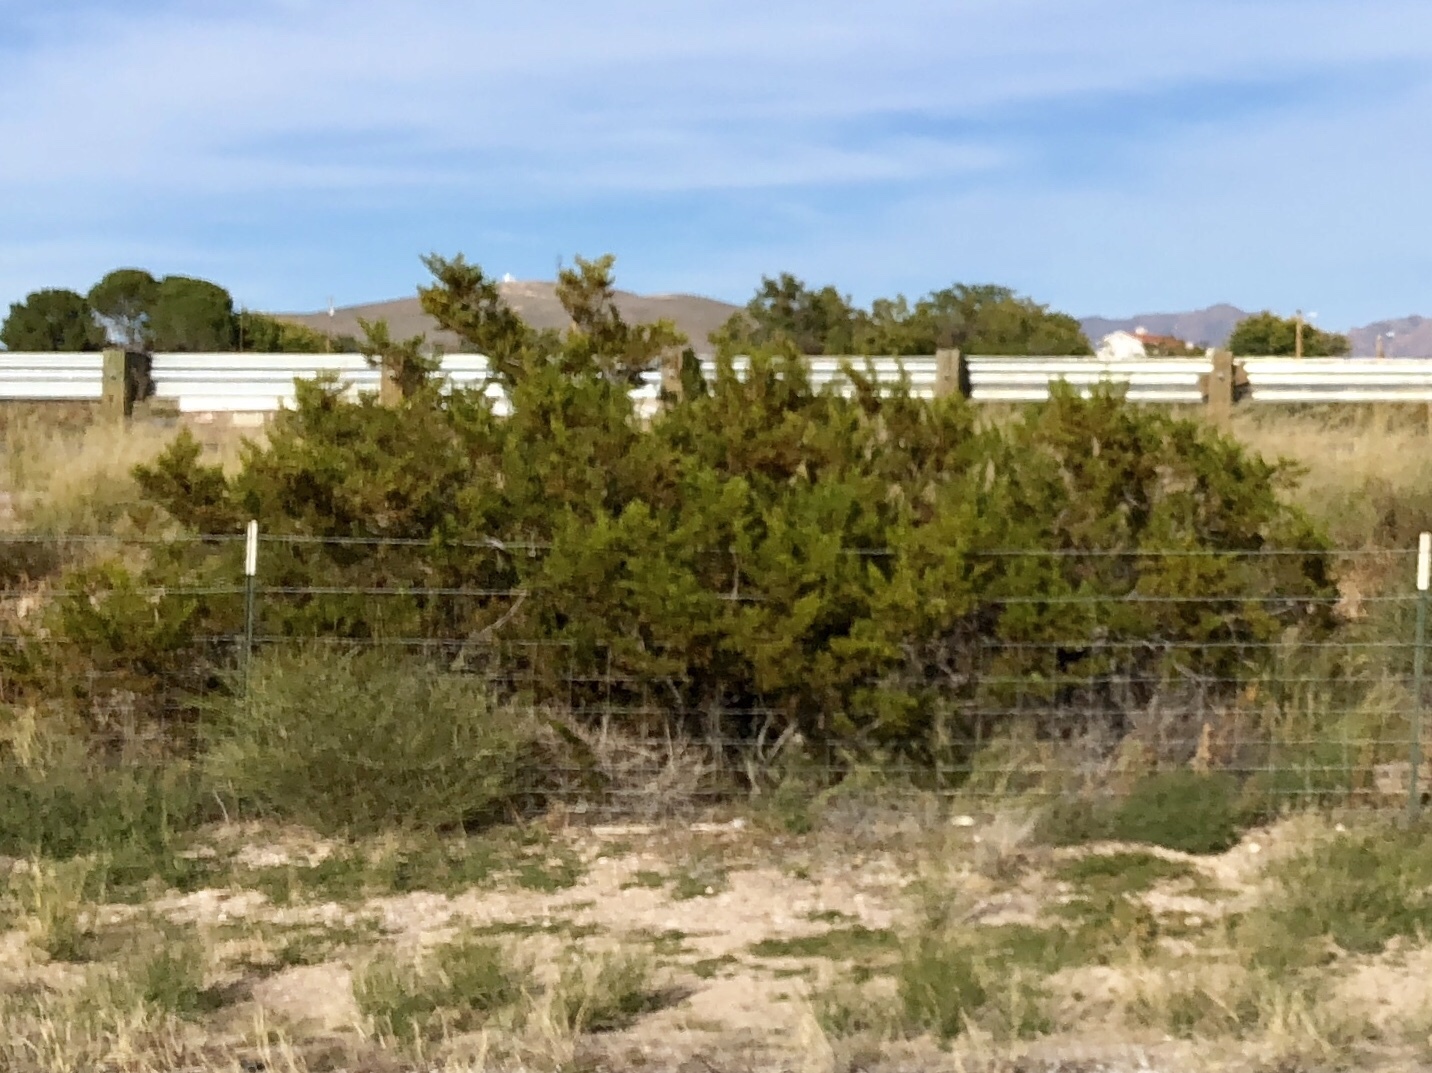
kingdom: Plantae
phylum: Tracheophyta
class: Magnoliopsida
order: Zygophyllales
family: Zygophyllaceae
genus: Larrea
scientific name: Larrea tridentata
